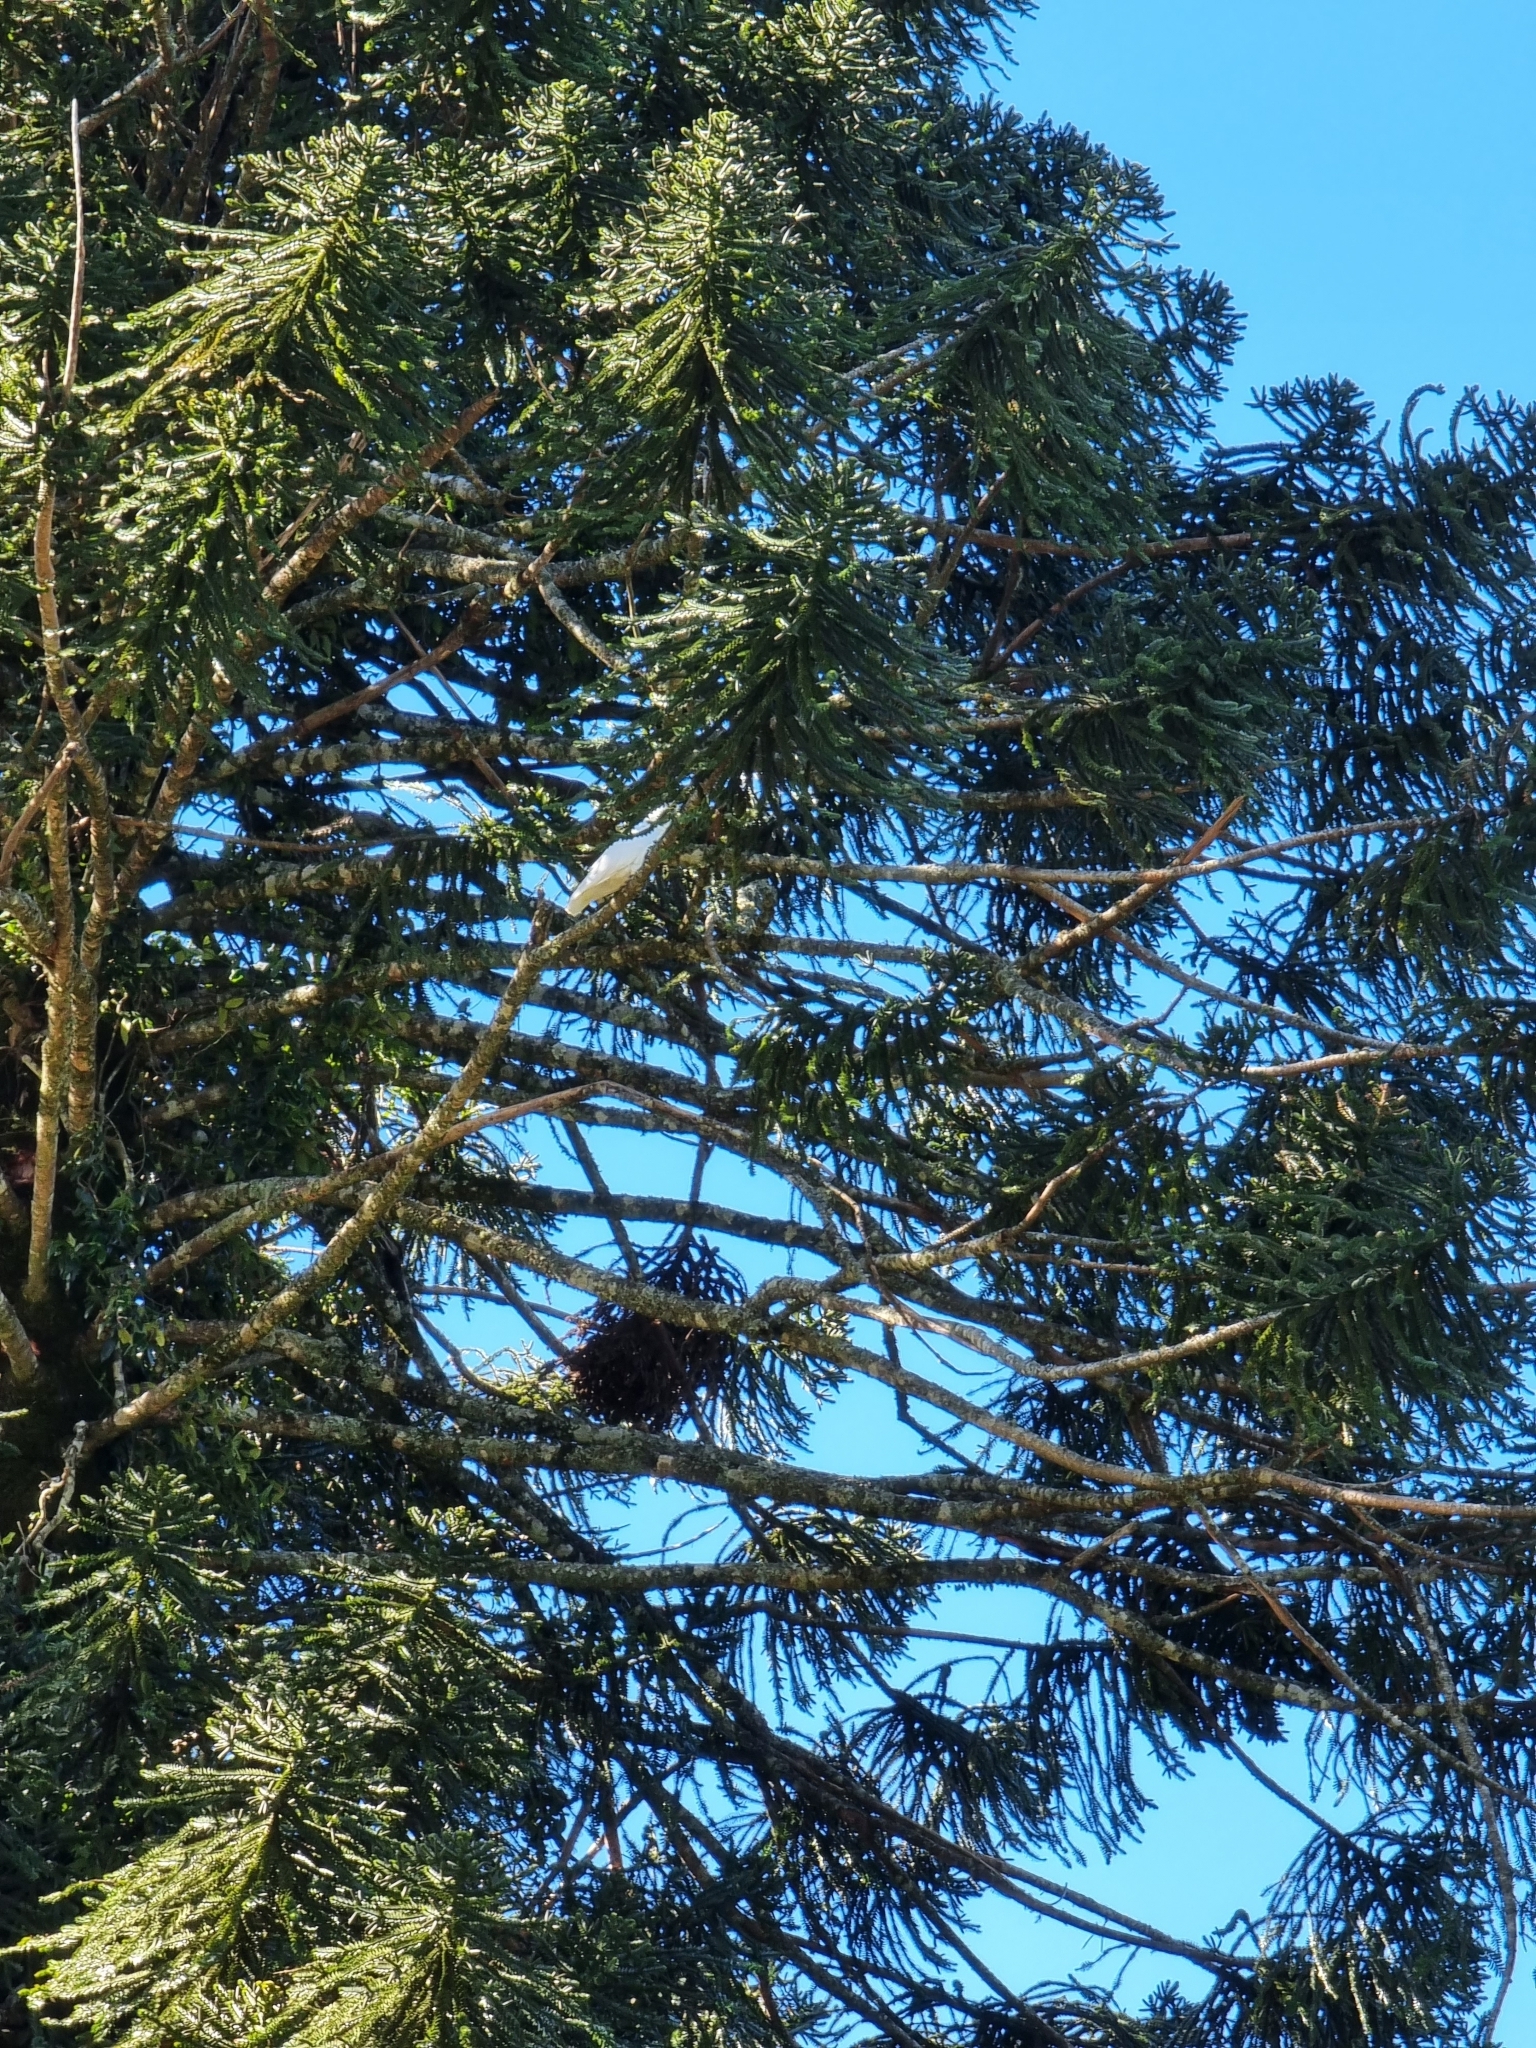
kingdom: Animalia
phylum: Chordata
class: Aves
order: Psittaciformes
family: Psittacidae
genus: Cacatua
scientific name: Cacatua galerita
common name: Sulphur-crested cockatoo
